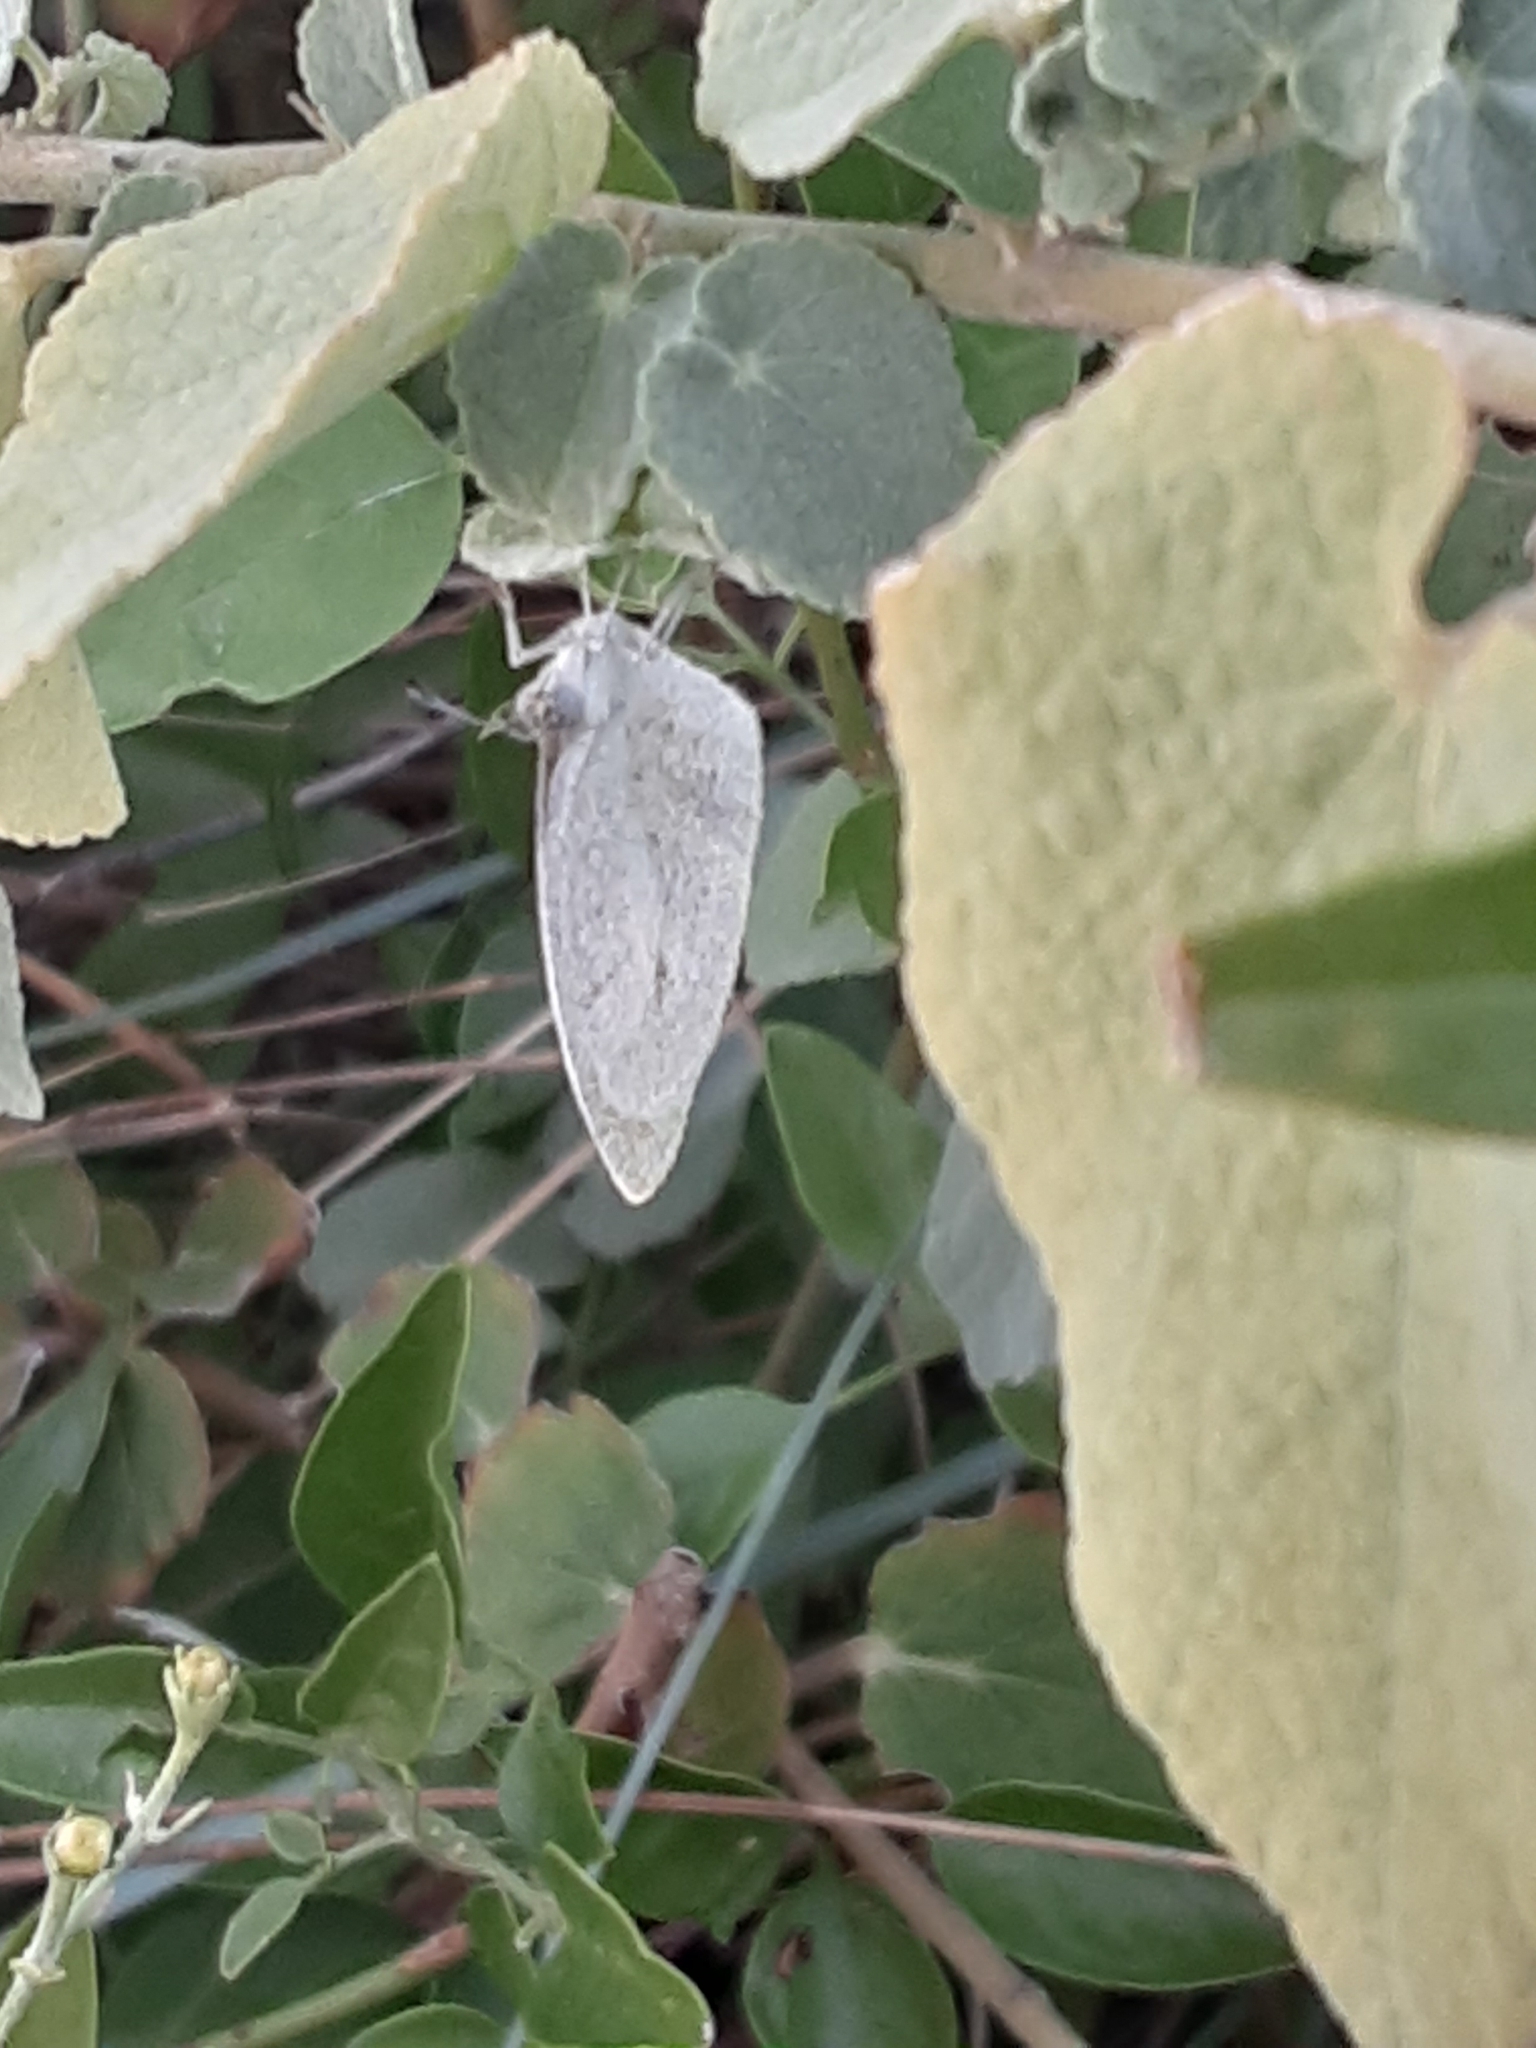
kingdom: Animalia
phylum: Arthropoda
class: Insecta
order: Lepidoptera
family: Pieridae
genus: Eurema
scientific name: Eurema daira
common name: Barred sulphur
